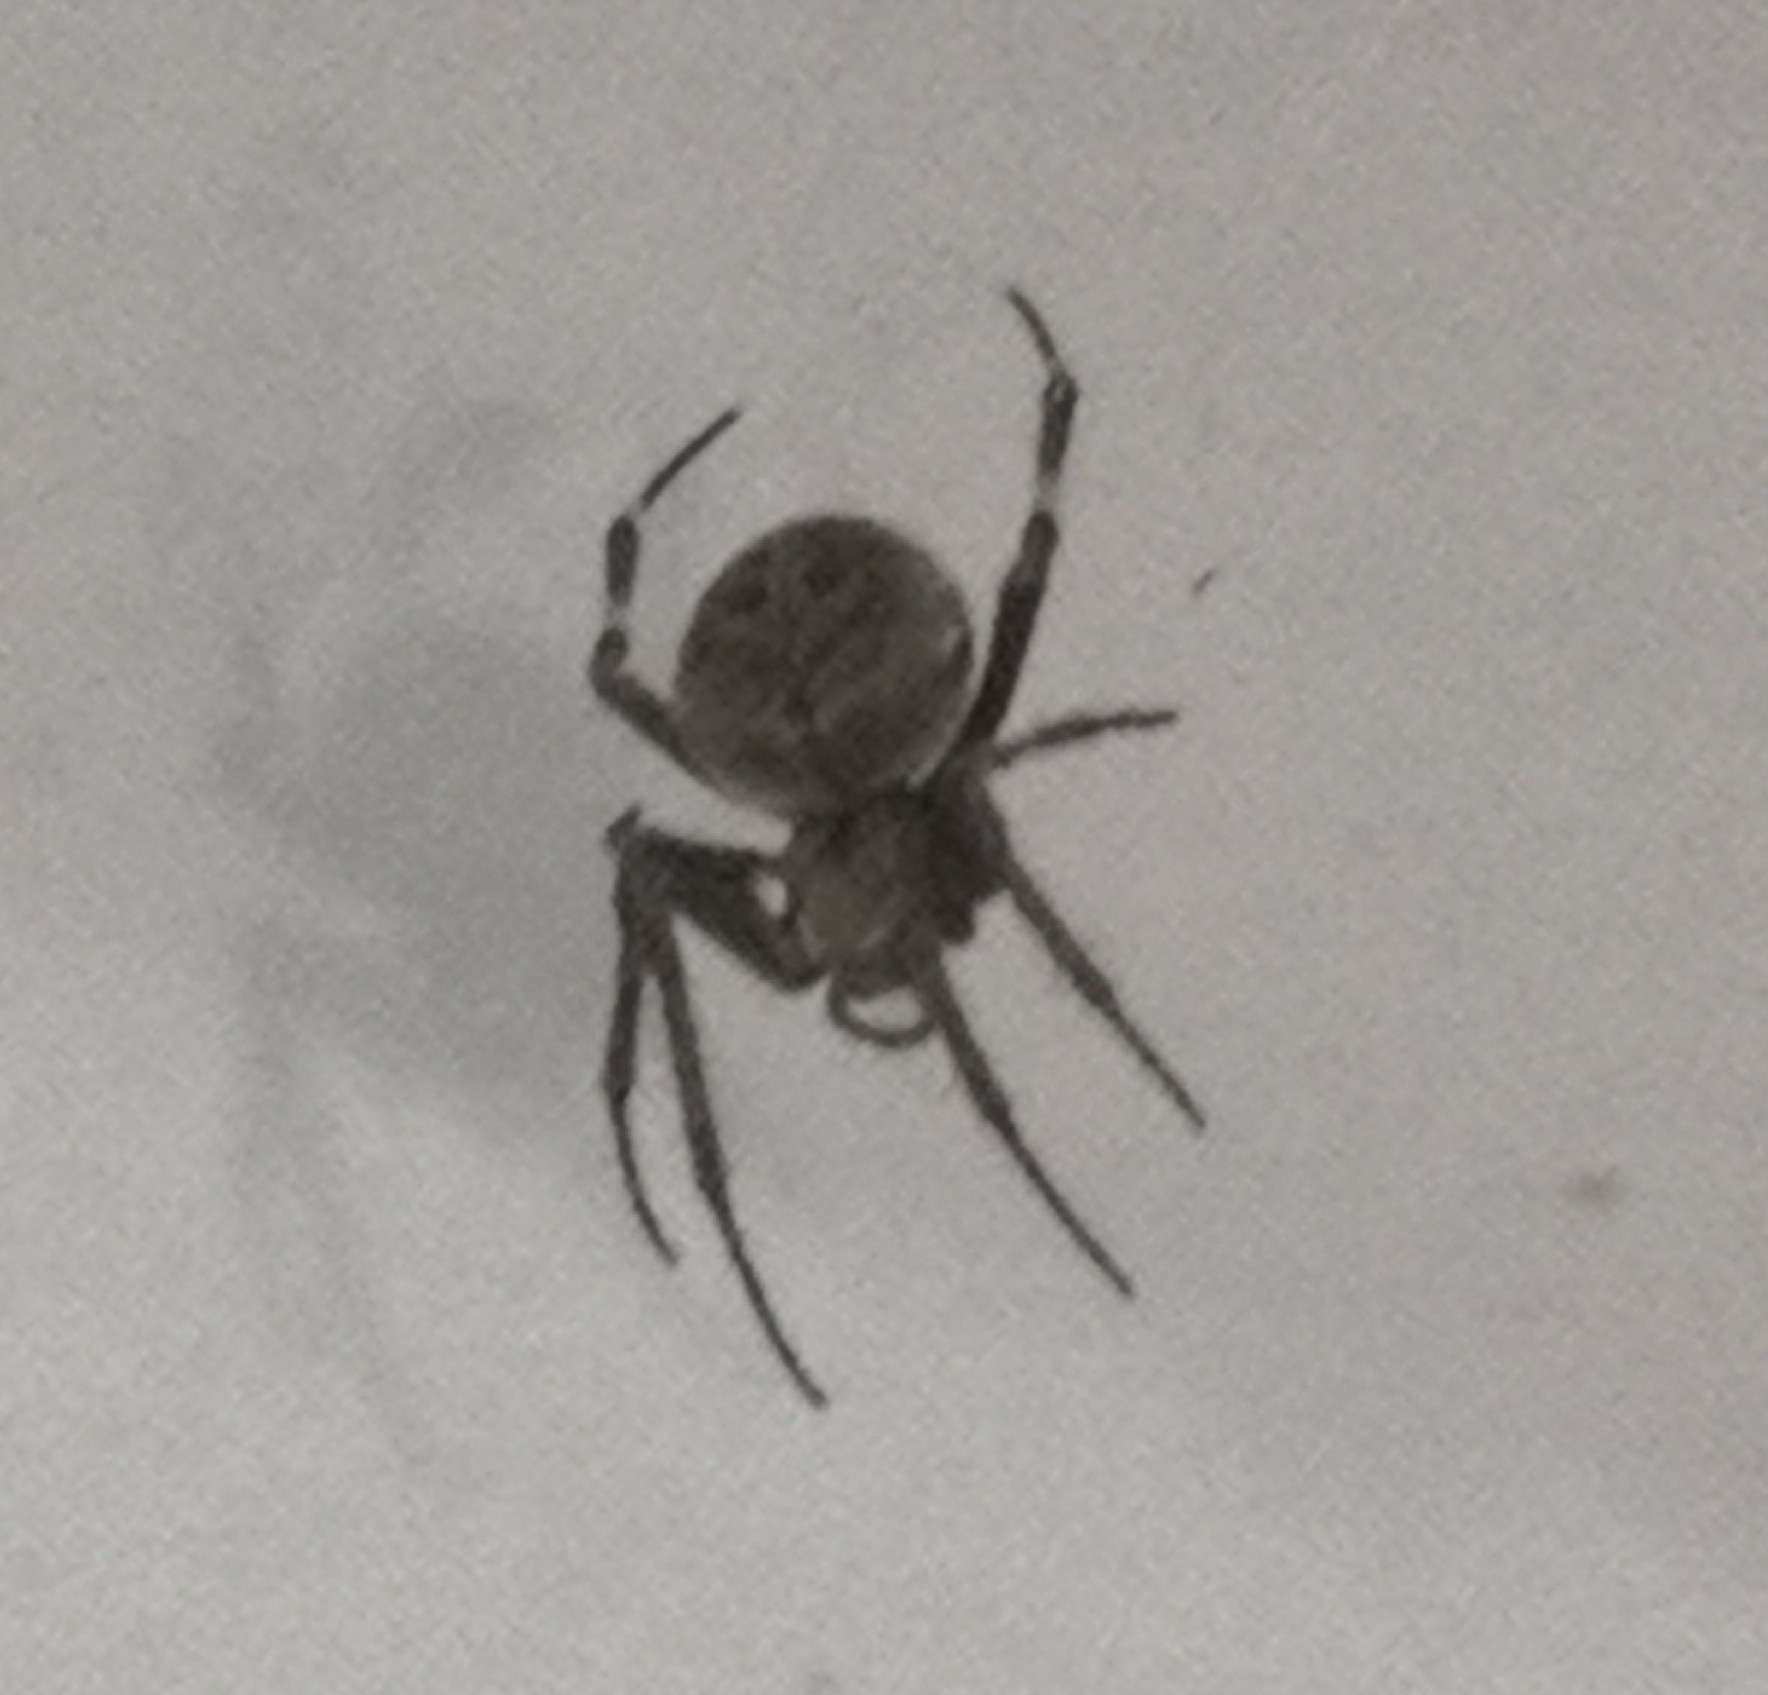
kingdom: Animalia
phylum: Arthropoda
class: Arachnida
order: Araneae
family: Araneidae
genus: Neoscona
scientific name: Neoscona nautica
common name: Orb weavers
